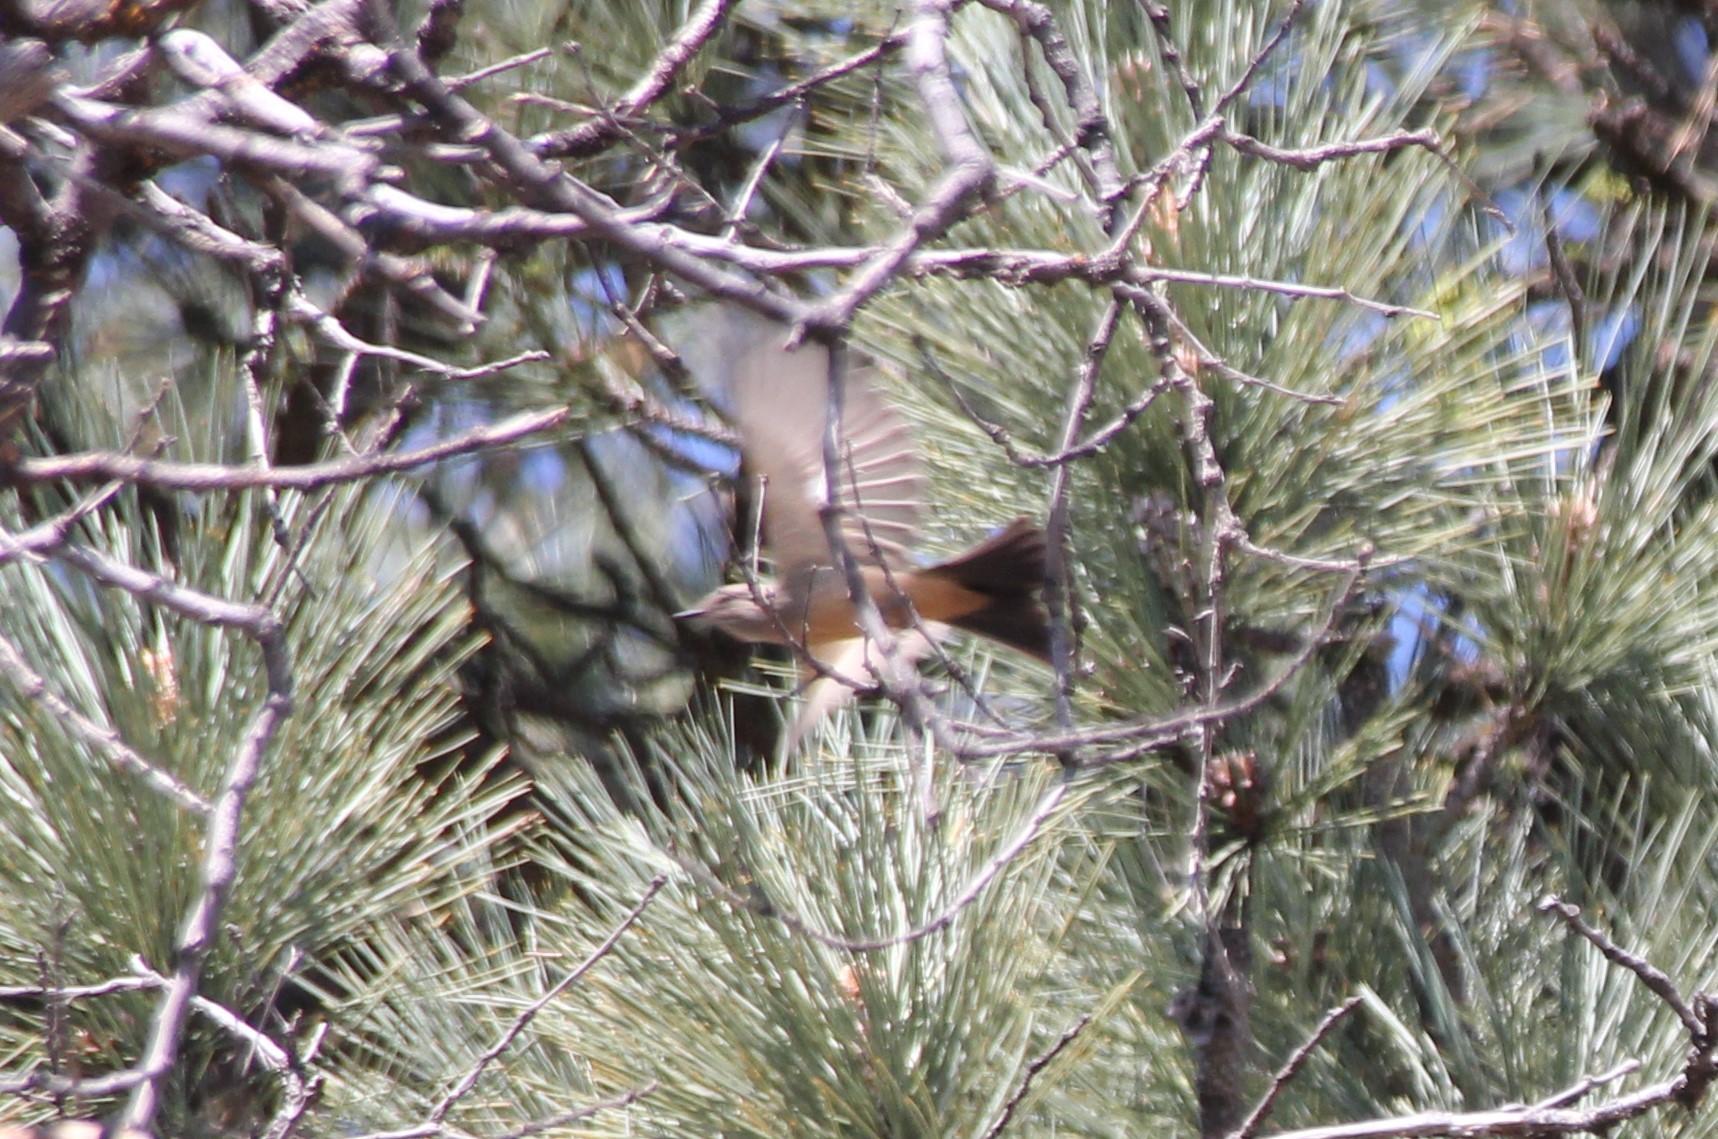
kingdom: Animalia
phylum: Chordata
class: Aves
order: Passeriformes
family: Tyrannidae
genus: Sayornis
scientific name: Sayornis saya
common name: Say's phoebe
